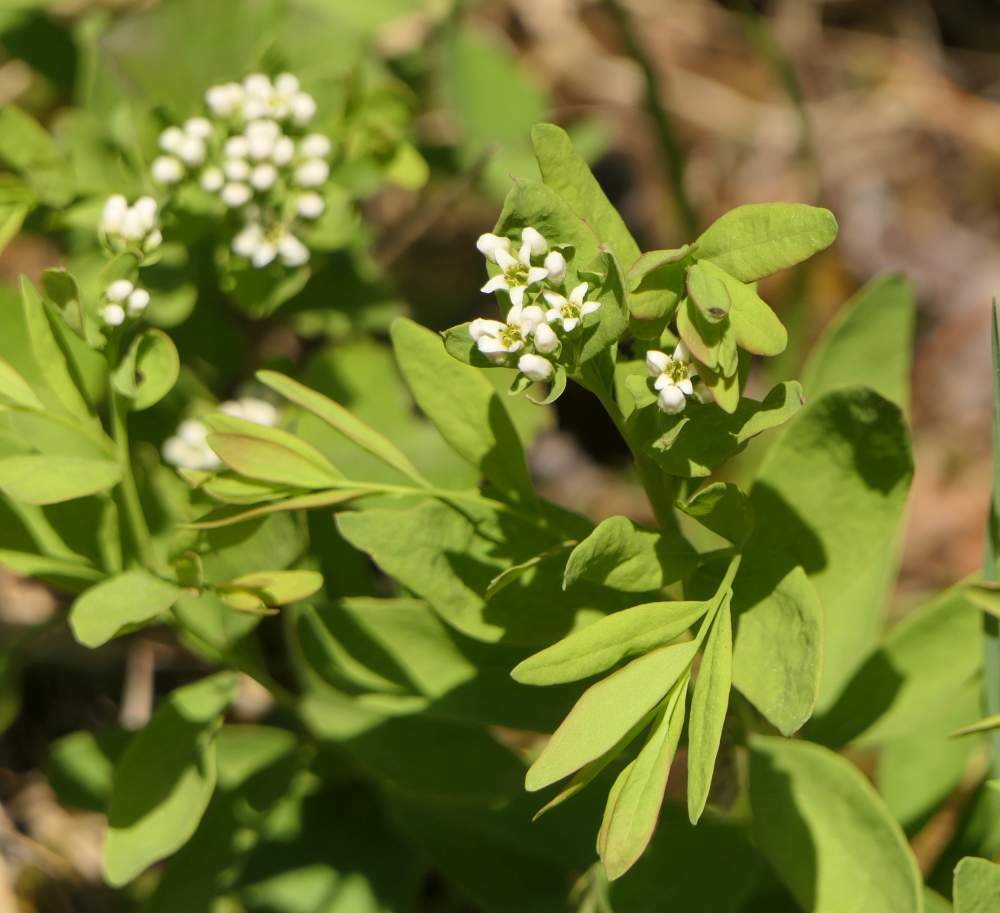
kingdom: Plantae
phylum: Tracheophyta
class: Magnoliopsida
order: Santalales
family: Comandraceae
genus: Comandra
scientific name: Comandra umbellata
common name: Bastard toadflax
